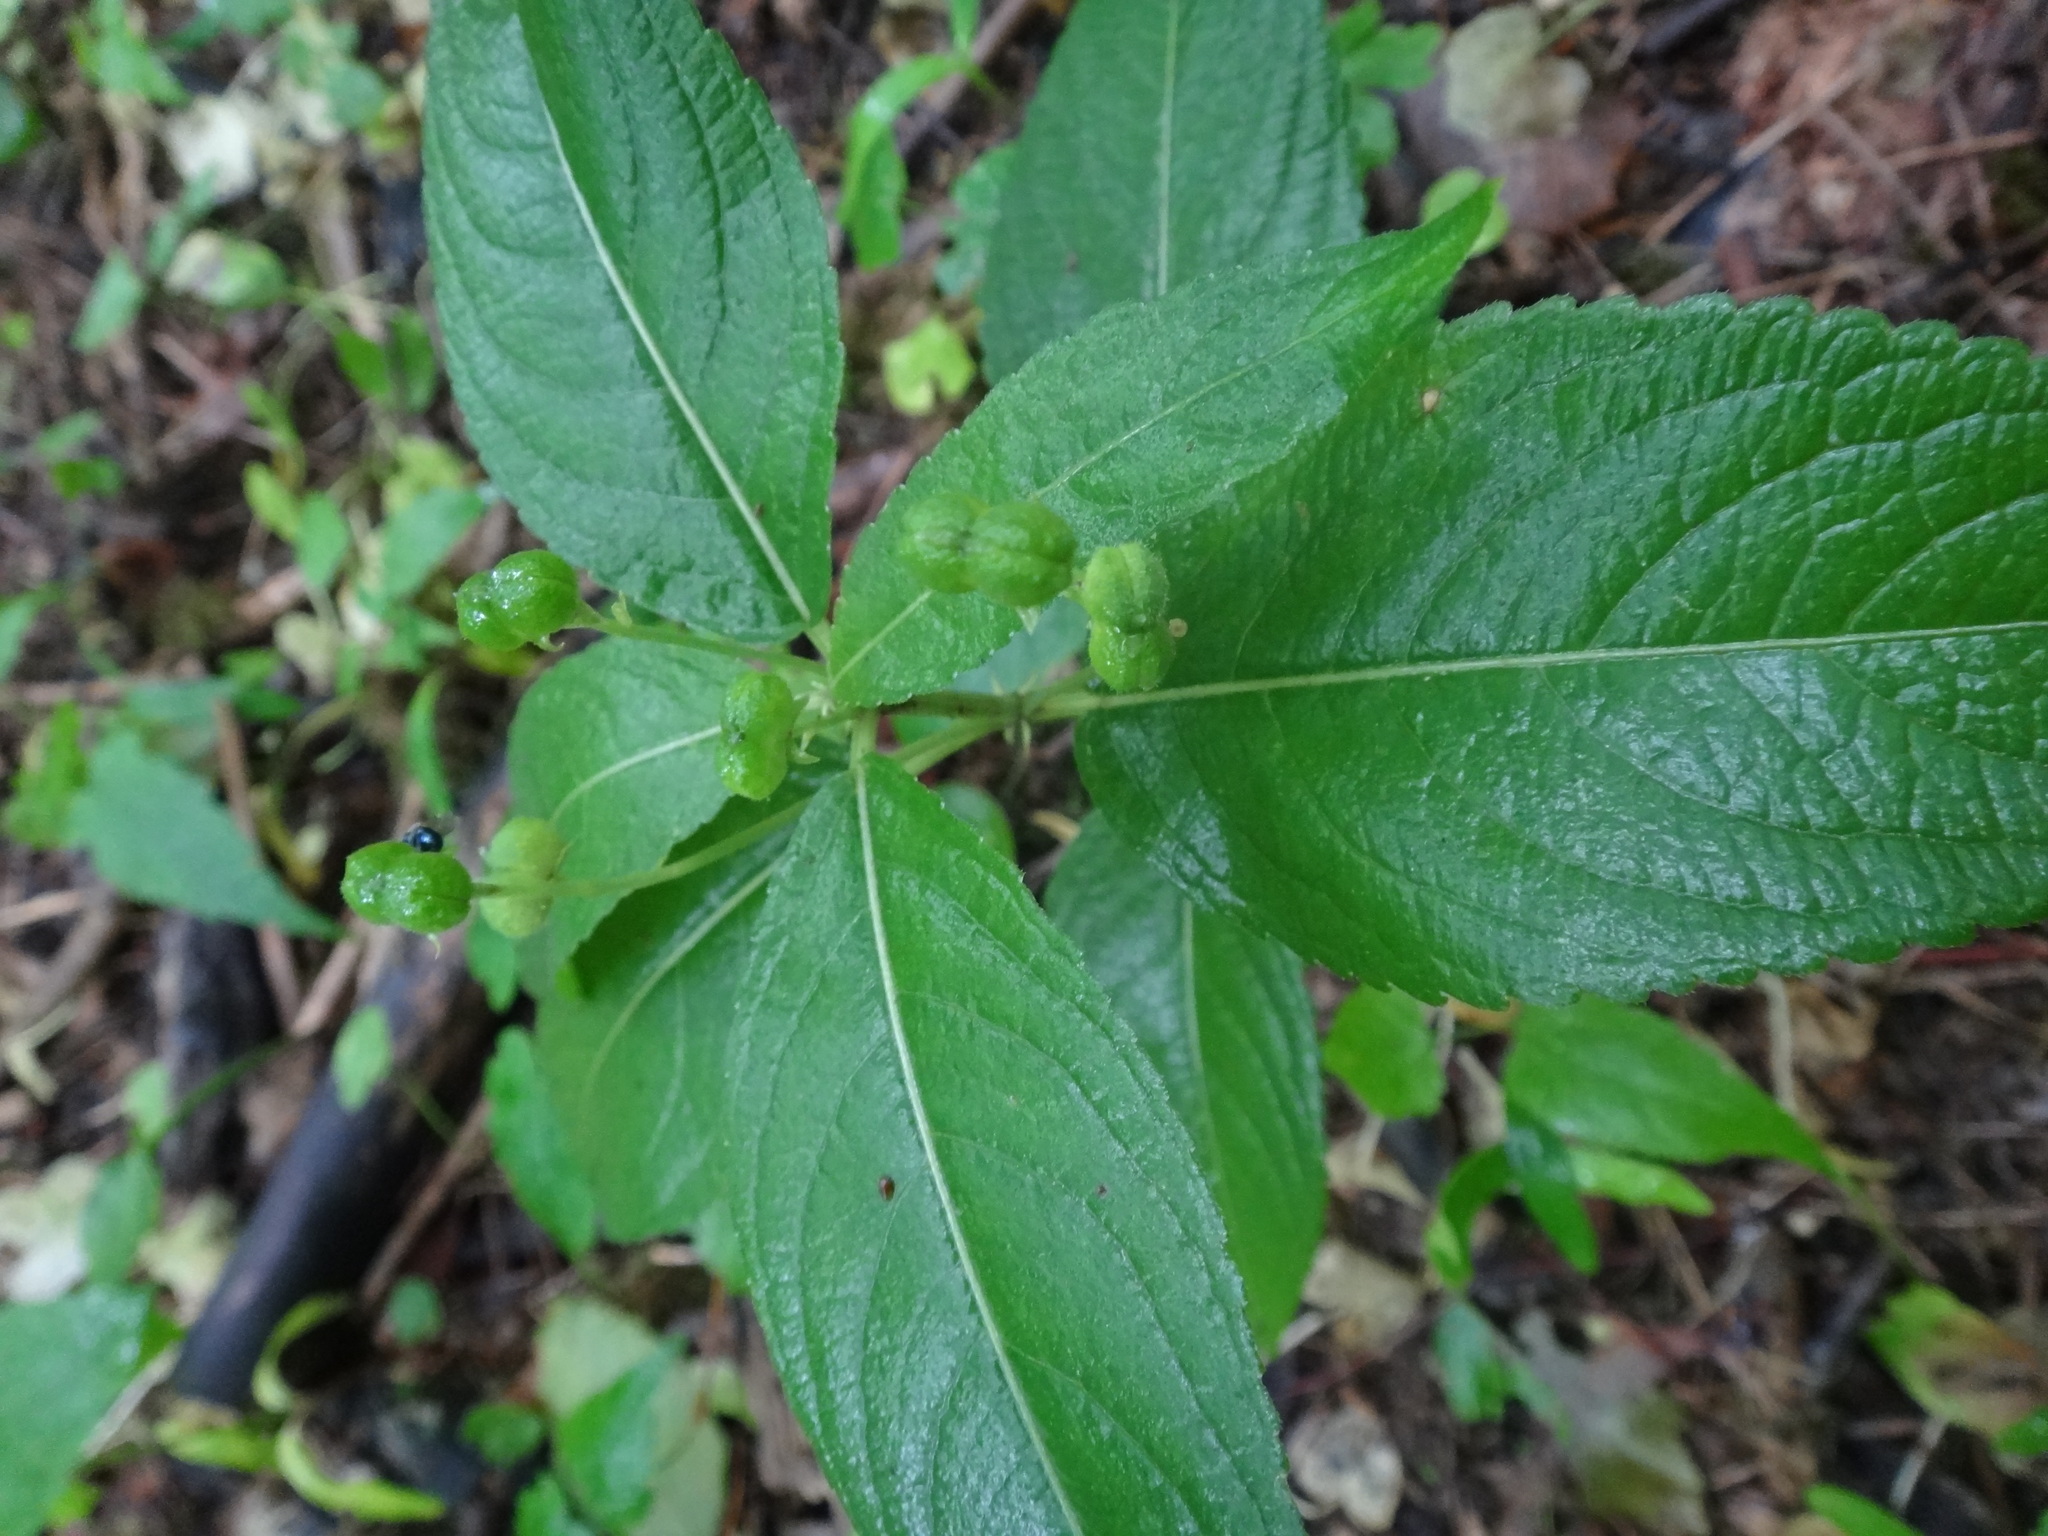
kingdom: Plantae
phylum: Tracheophyta
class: Magnoliopsida
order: Malpighiales
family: Euphorbiaceae
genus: Mercurialis
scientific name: Mercurialis perennis
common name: Dog mercury
